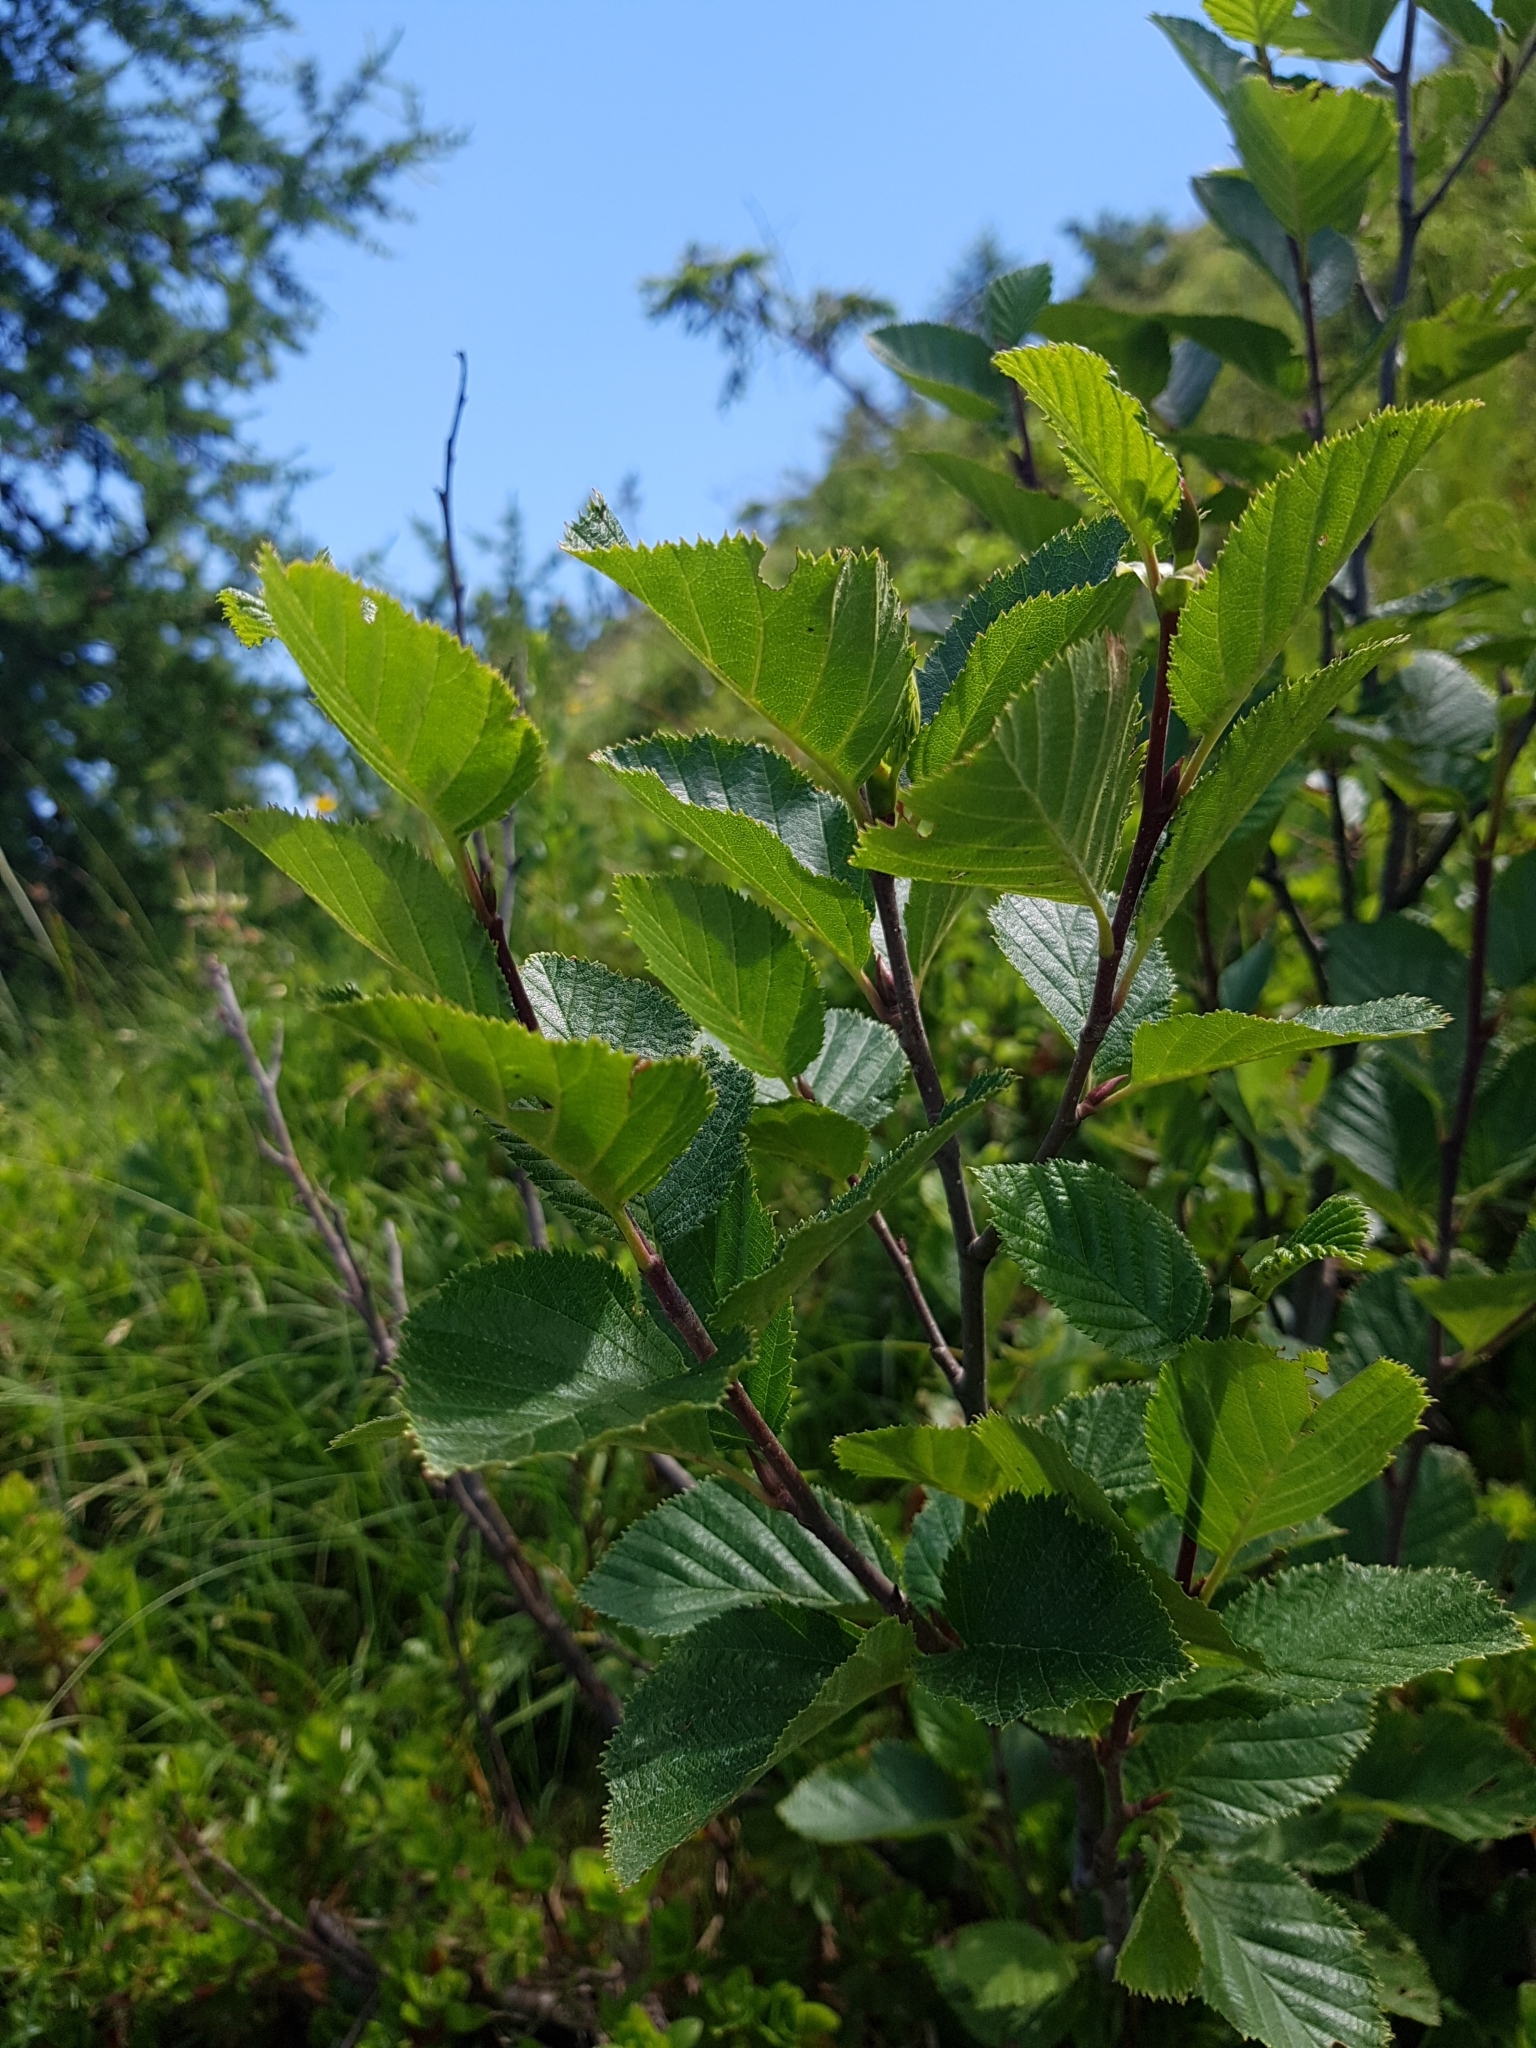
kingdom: Plantae
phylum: Tracheophyta
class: Magnoliopsida
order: Fagales
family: Betulaceae
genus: Alnus
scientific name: Alnus alnobetula
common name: Green alder
